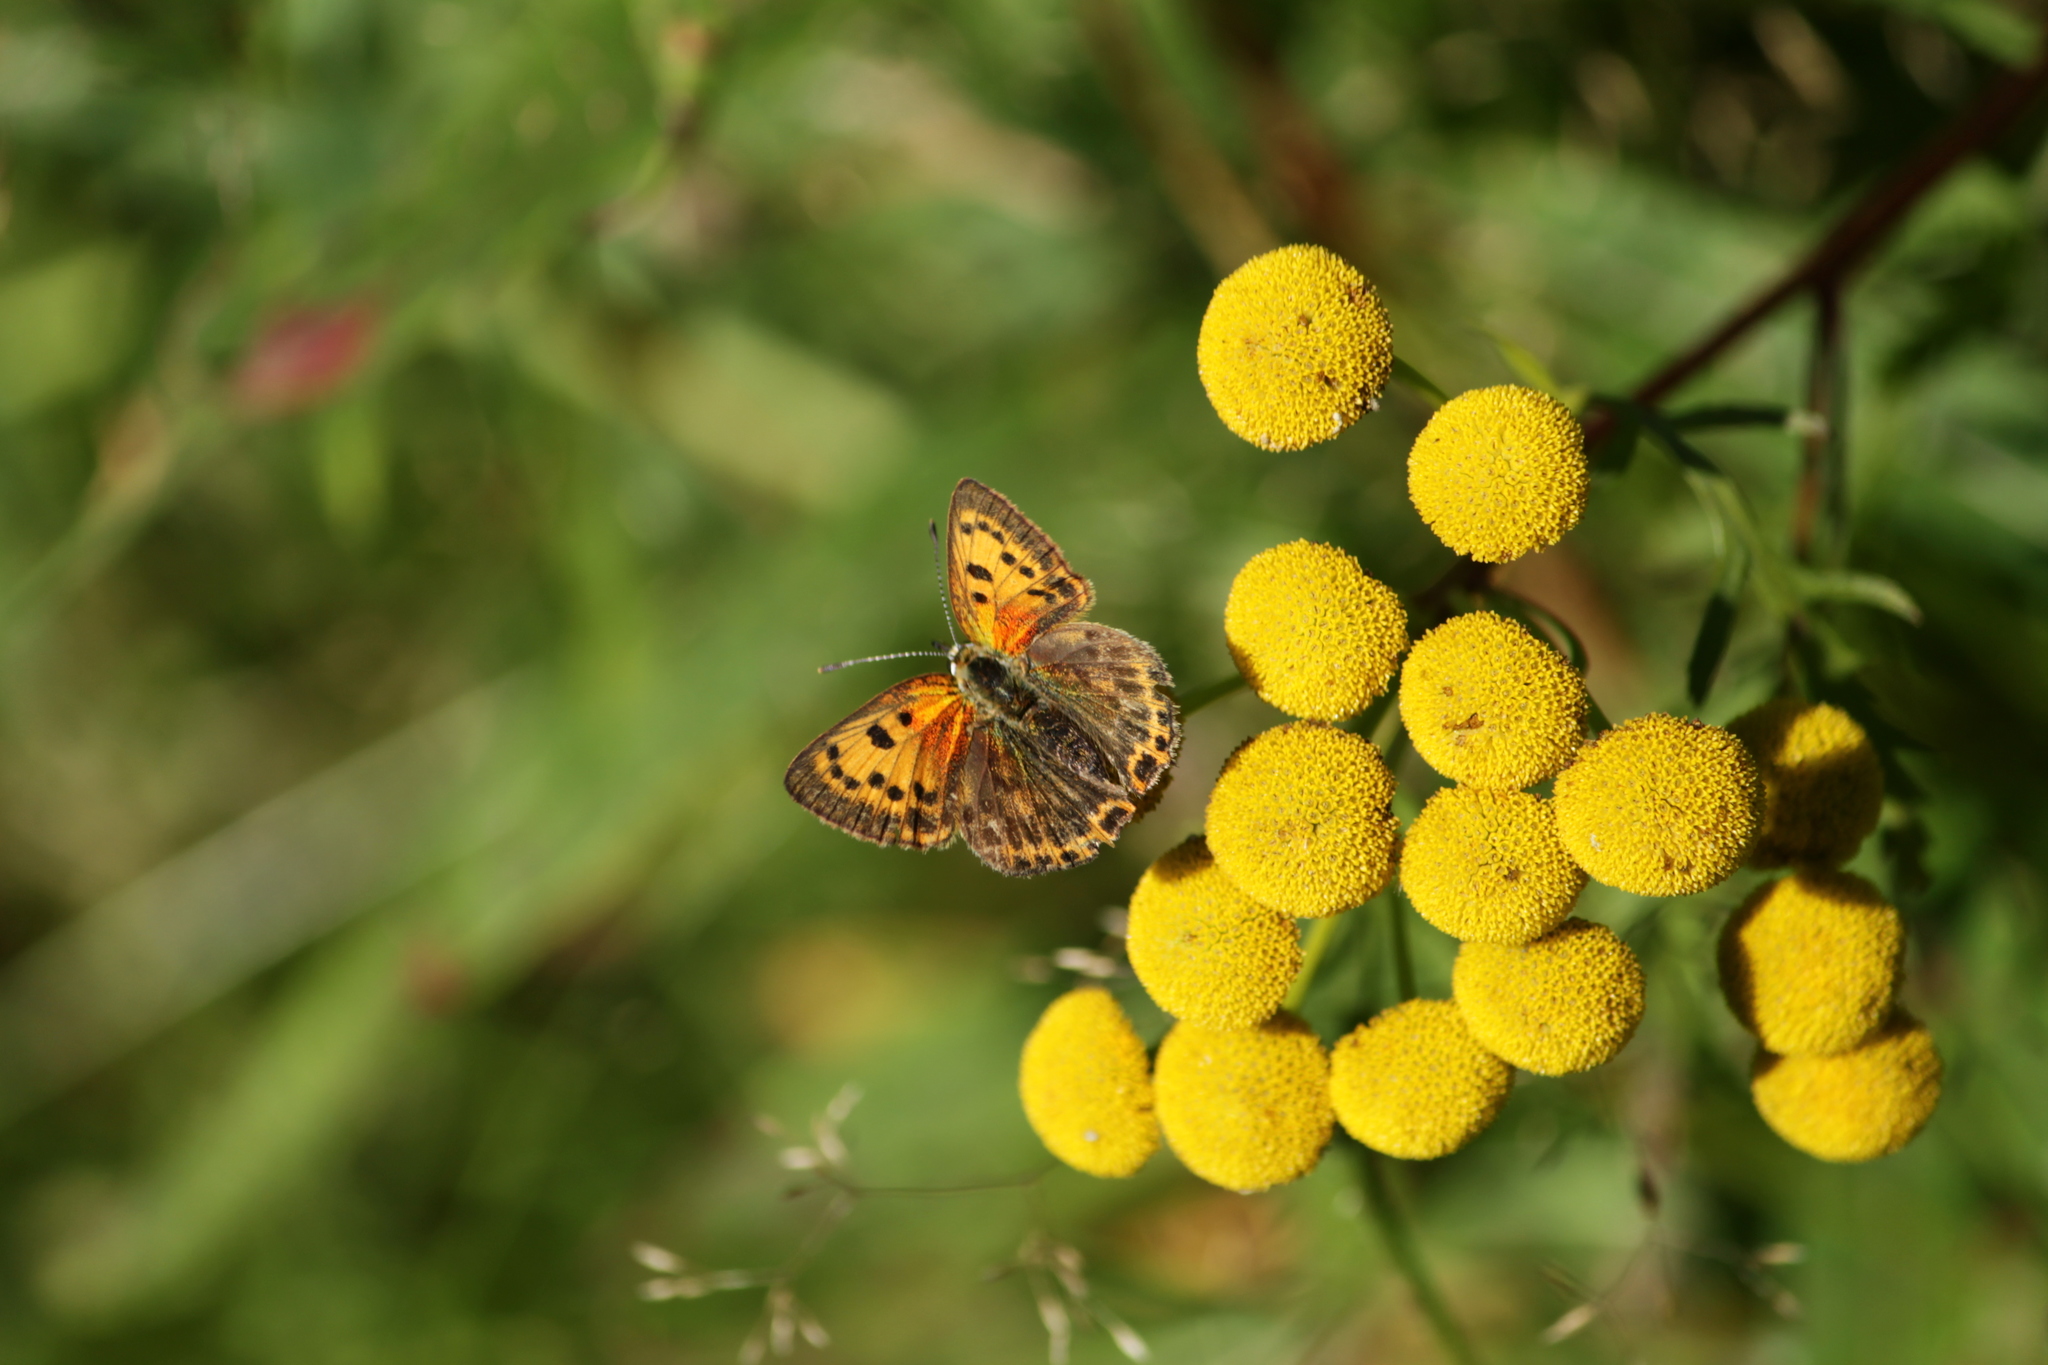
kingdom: Animalia
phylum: Arthropoda
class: Insecta
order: Lepidoptera
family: Lycaenidae
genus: Lycaena
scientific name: Lycaena virgaureae
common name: Scarce copper
